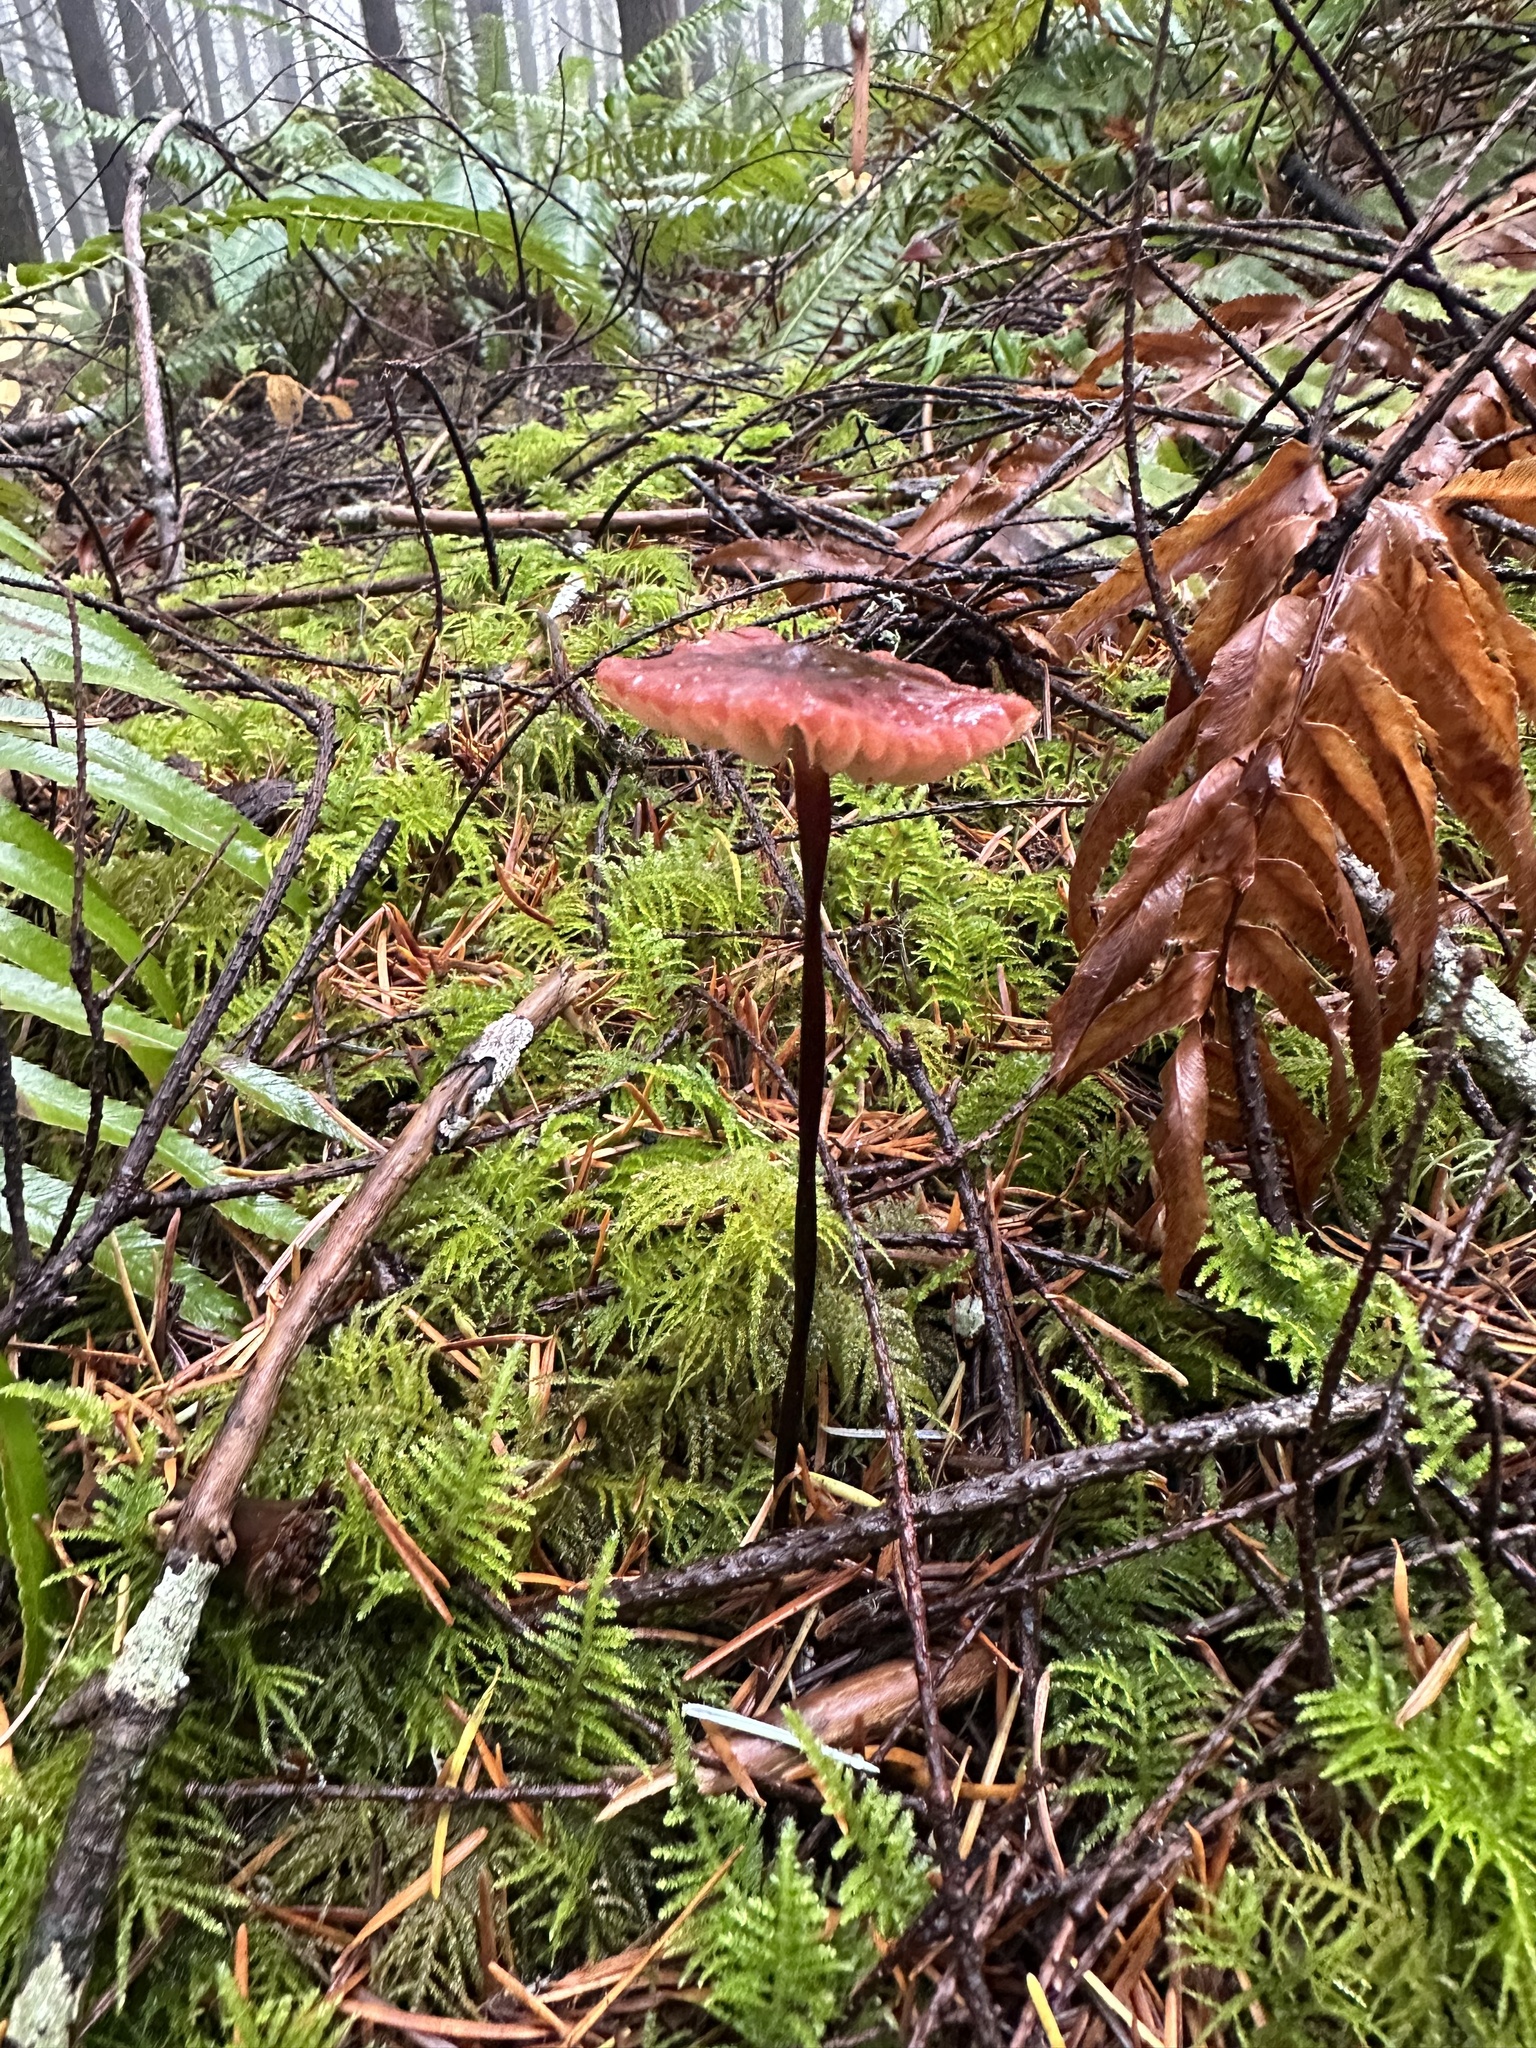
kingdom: Fungi
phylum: Basidiomycota
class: Agaricomycetes
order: Agaricales
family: Marasmiaceae
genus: Marasmius
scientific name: Marasmius plicatulus
